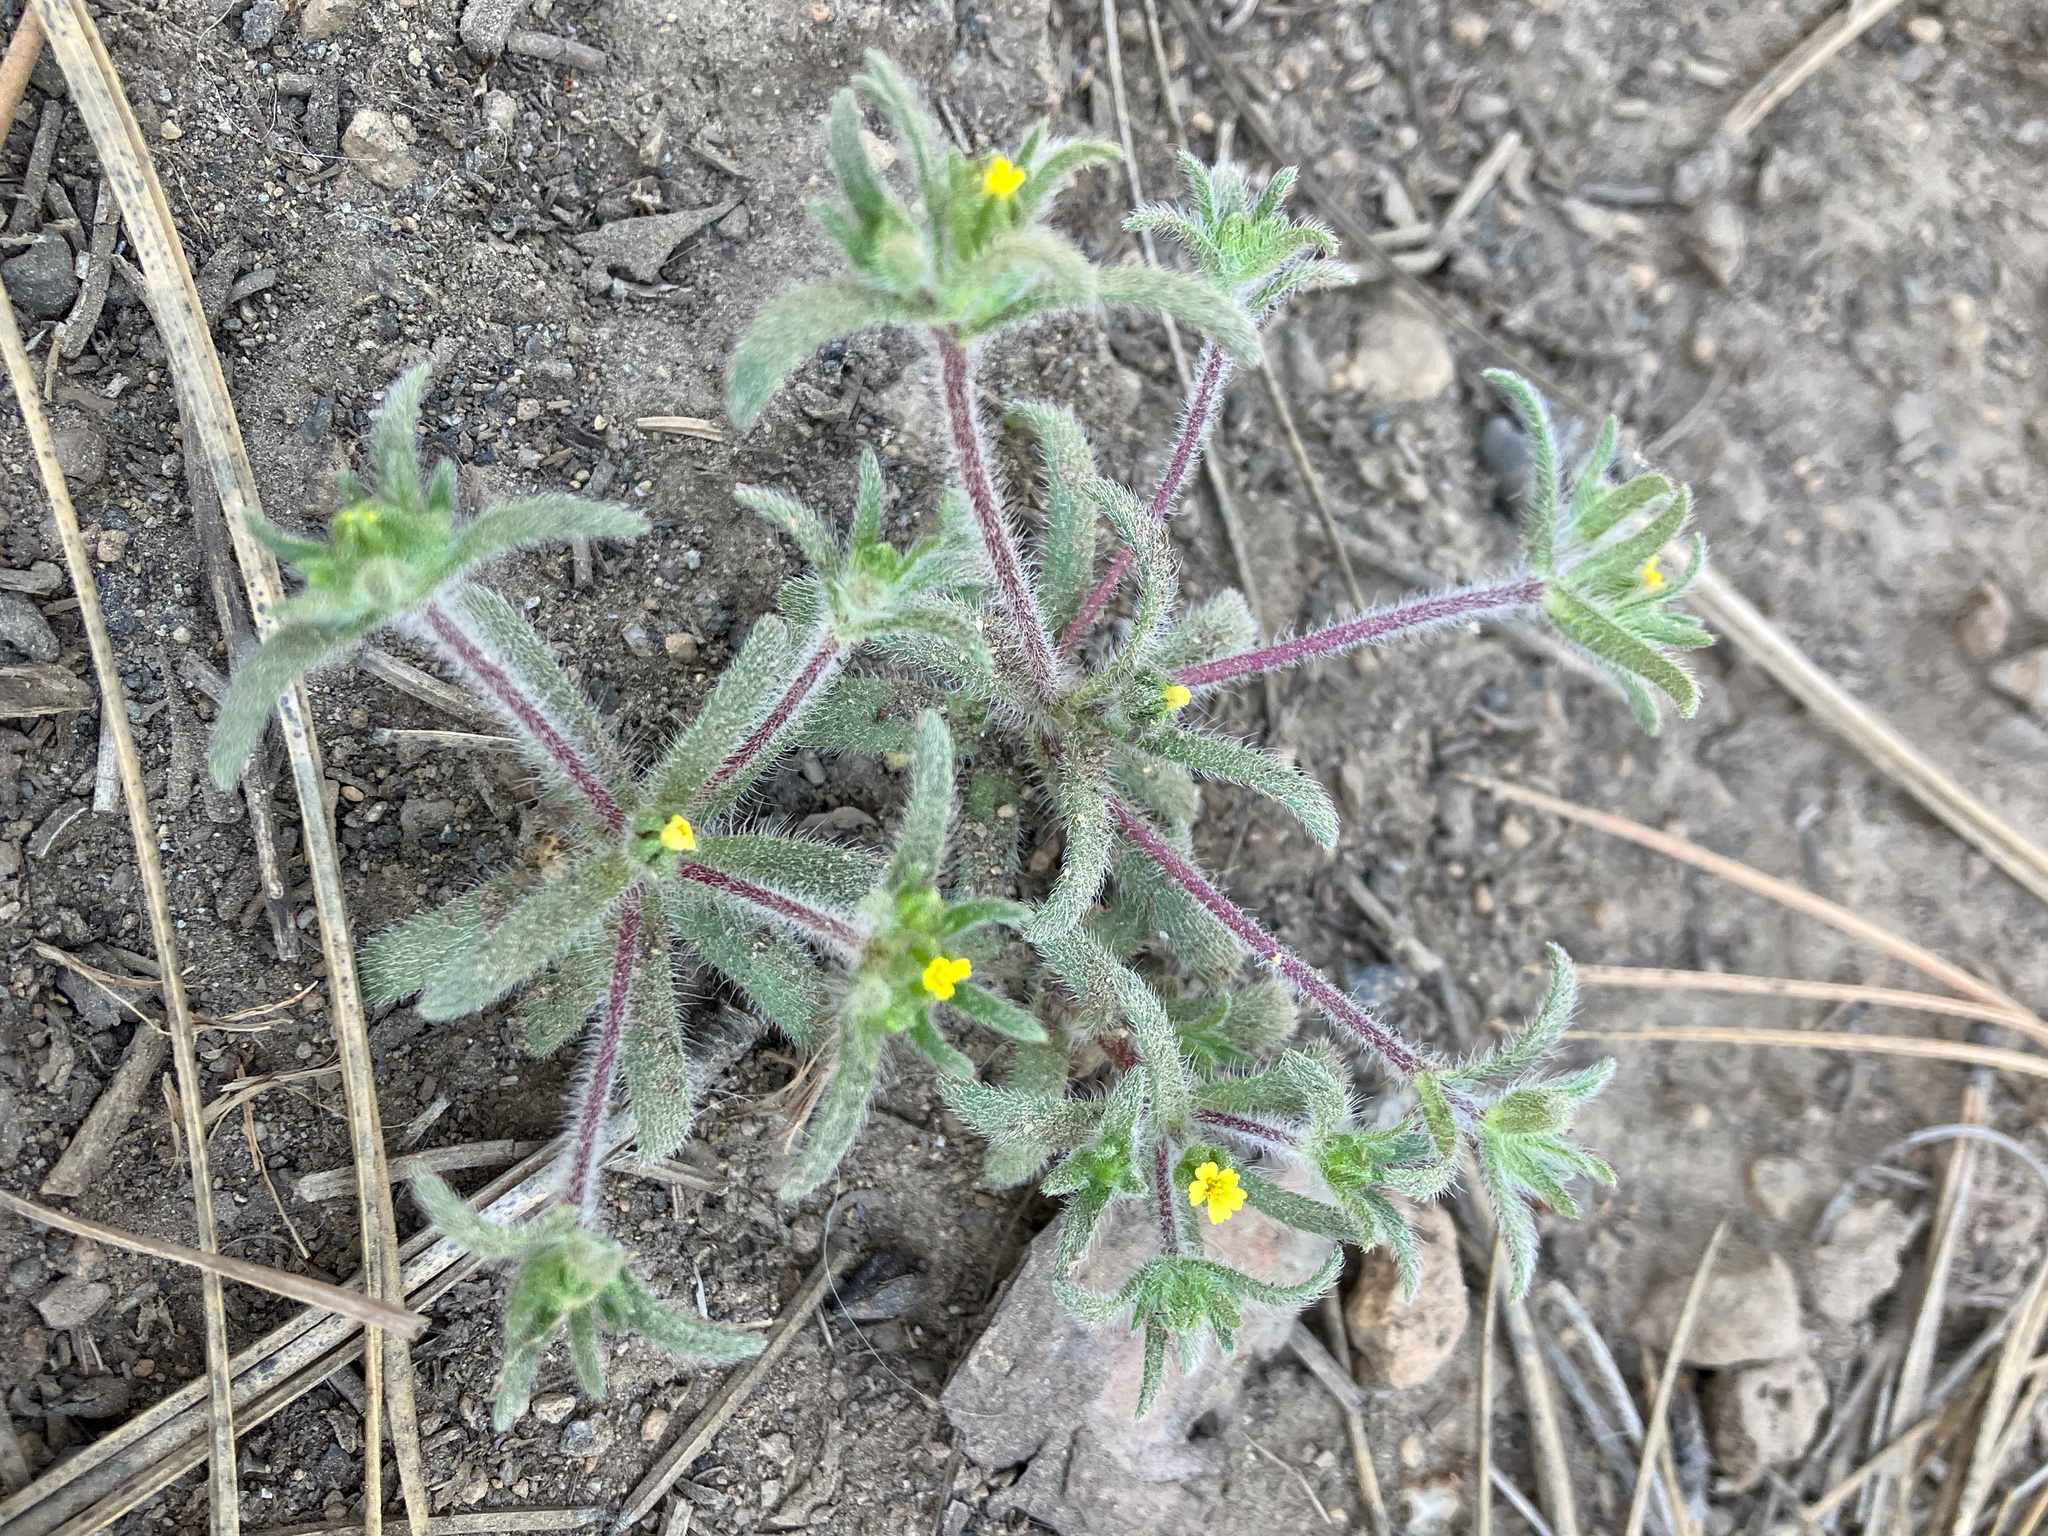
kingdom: Plantae
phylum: Tracheophyta
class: Magnoliopsida
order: Asterales
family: Asteraceae
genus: Hemizonella
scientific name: Hemizonella minima
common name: Opposite-leaved tarweed
